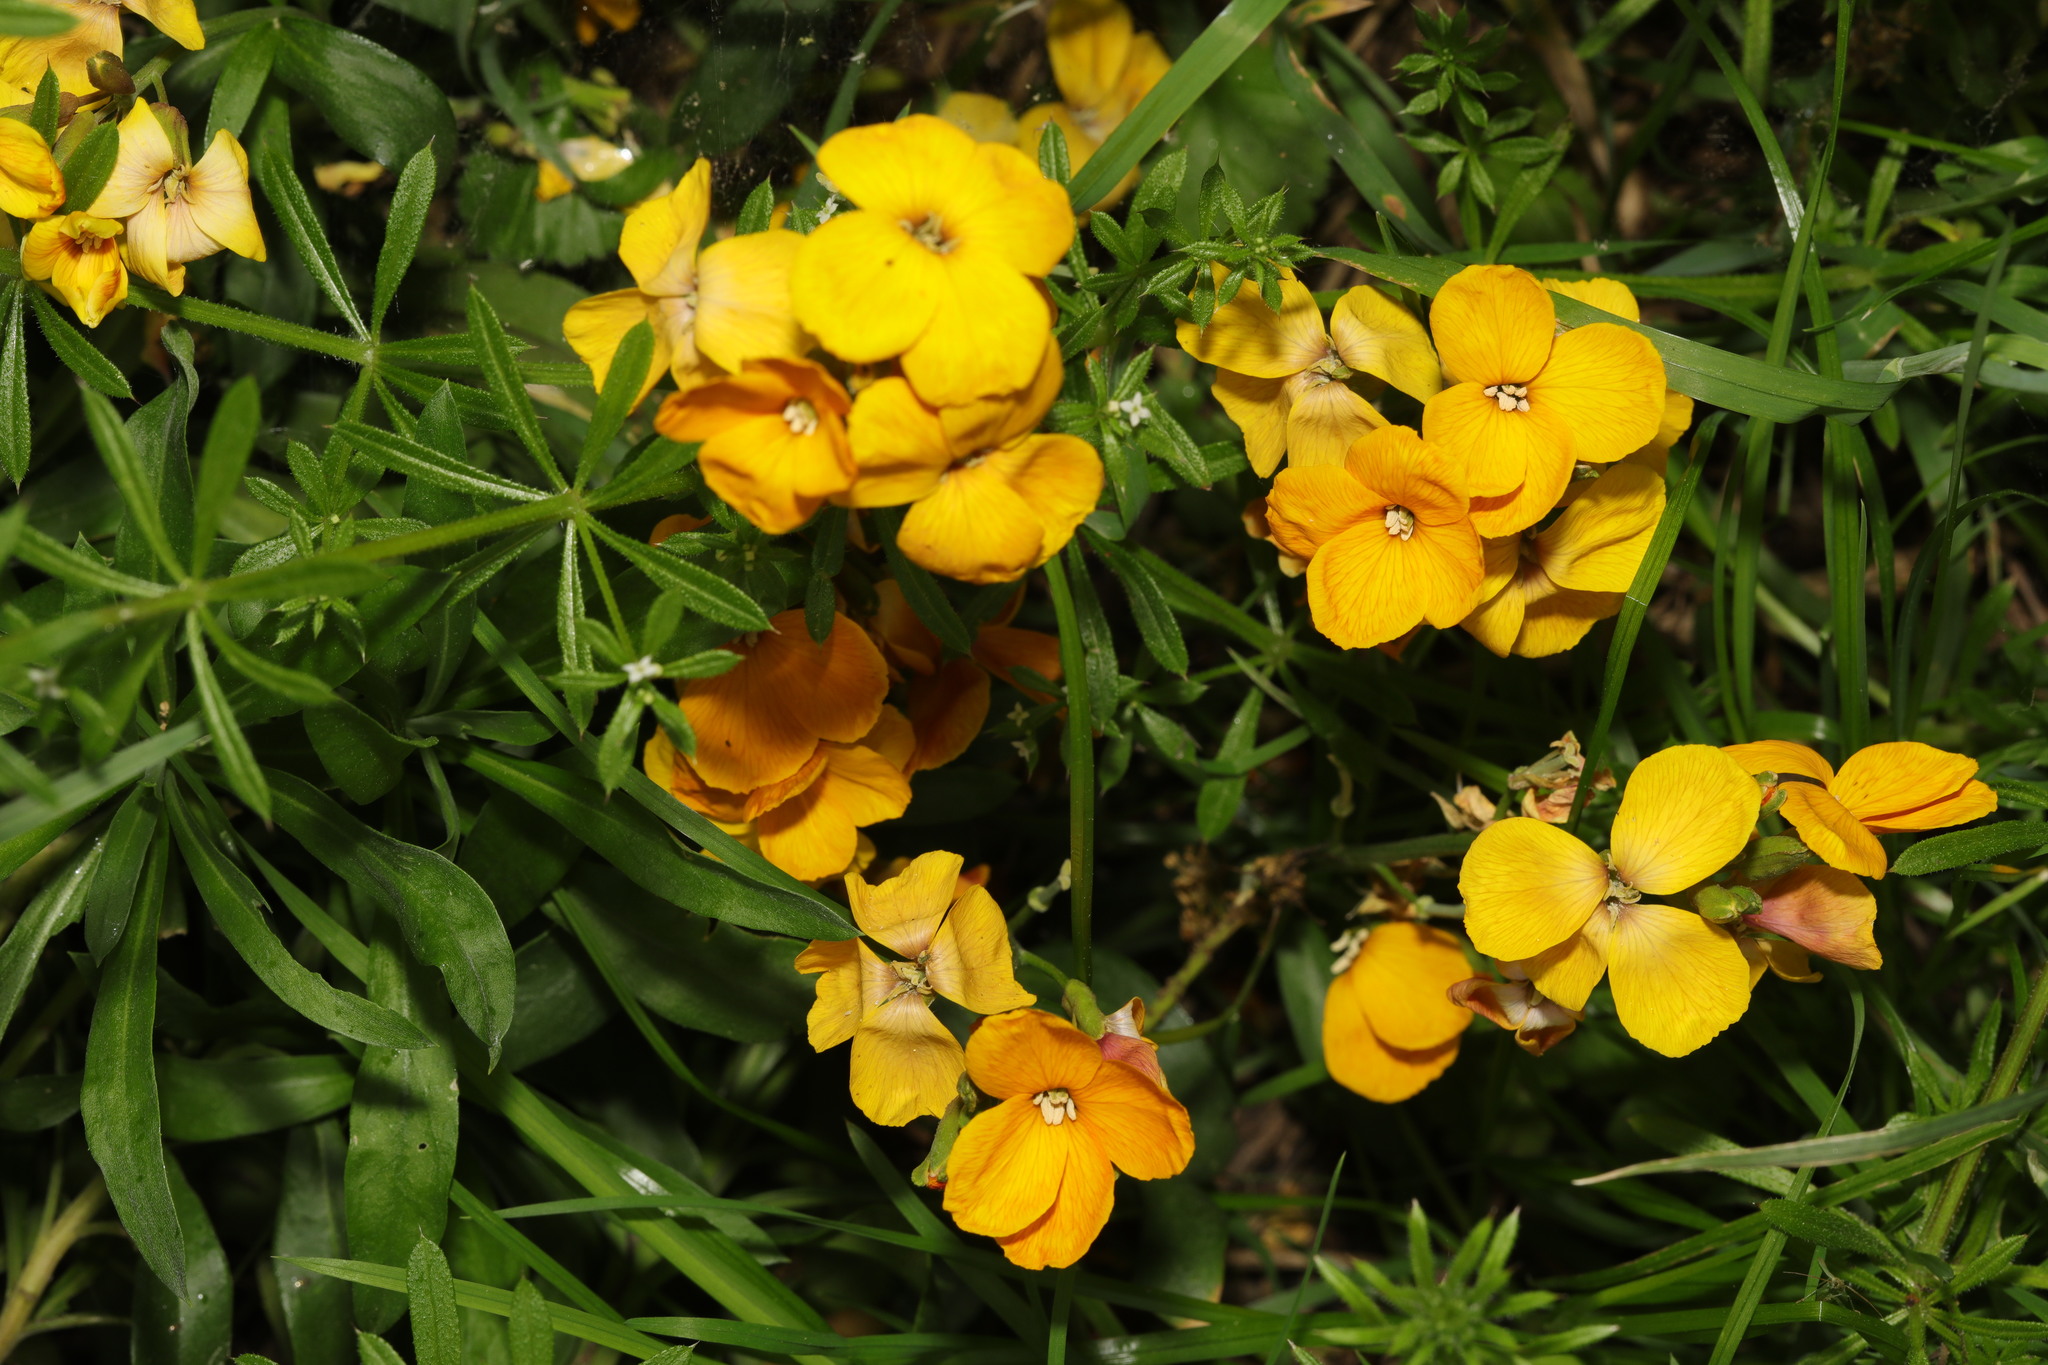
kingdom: Plantae
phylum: Tracheophyta
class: Magnoliopsida
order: Brassicales
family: Brassicaceae
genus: Erysimum
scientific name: Erysimum cheiri
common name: Wallflower
